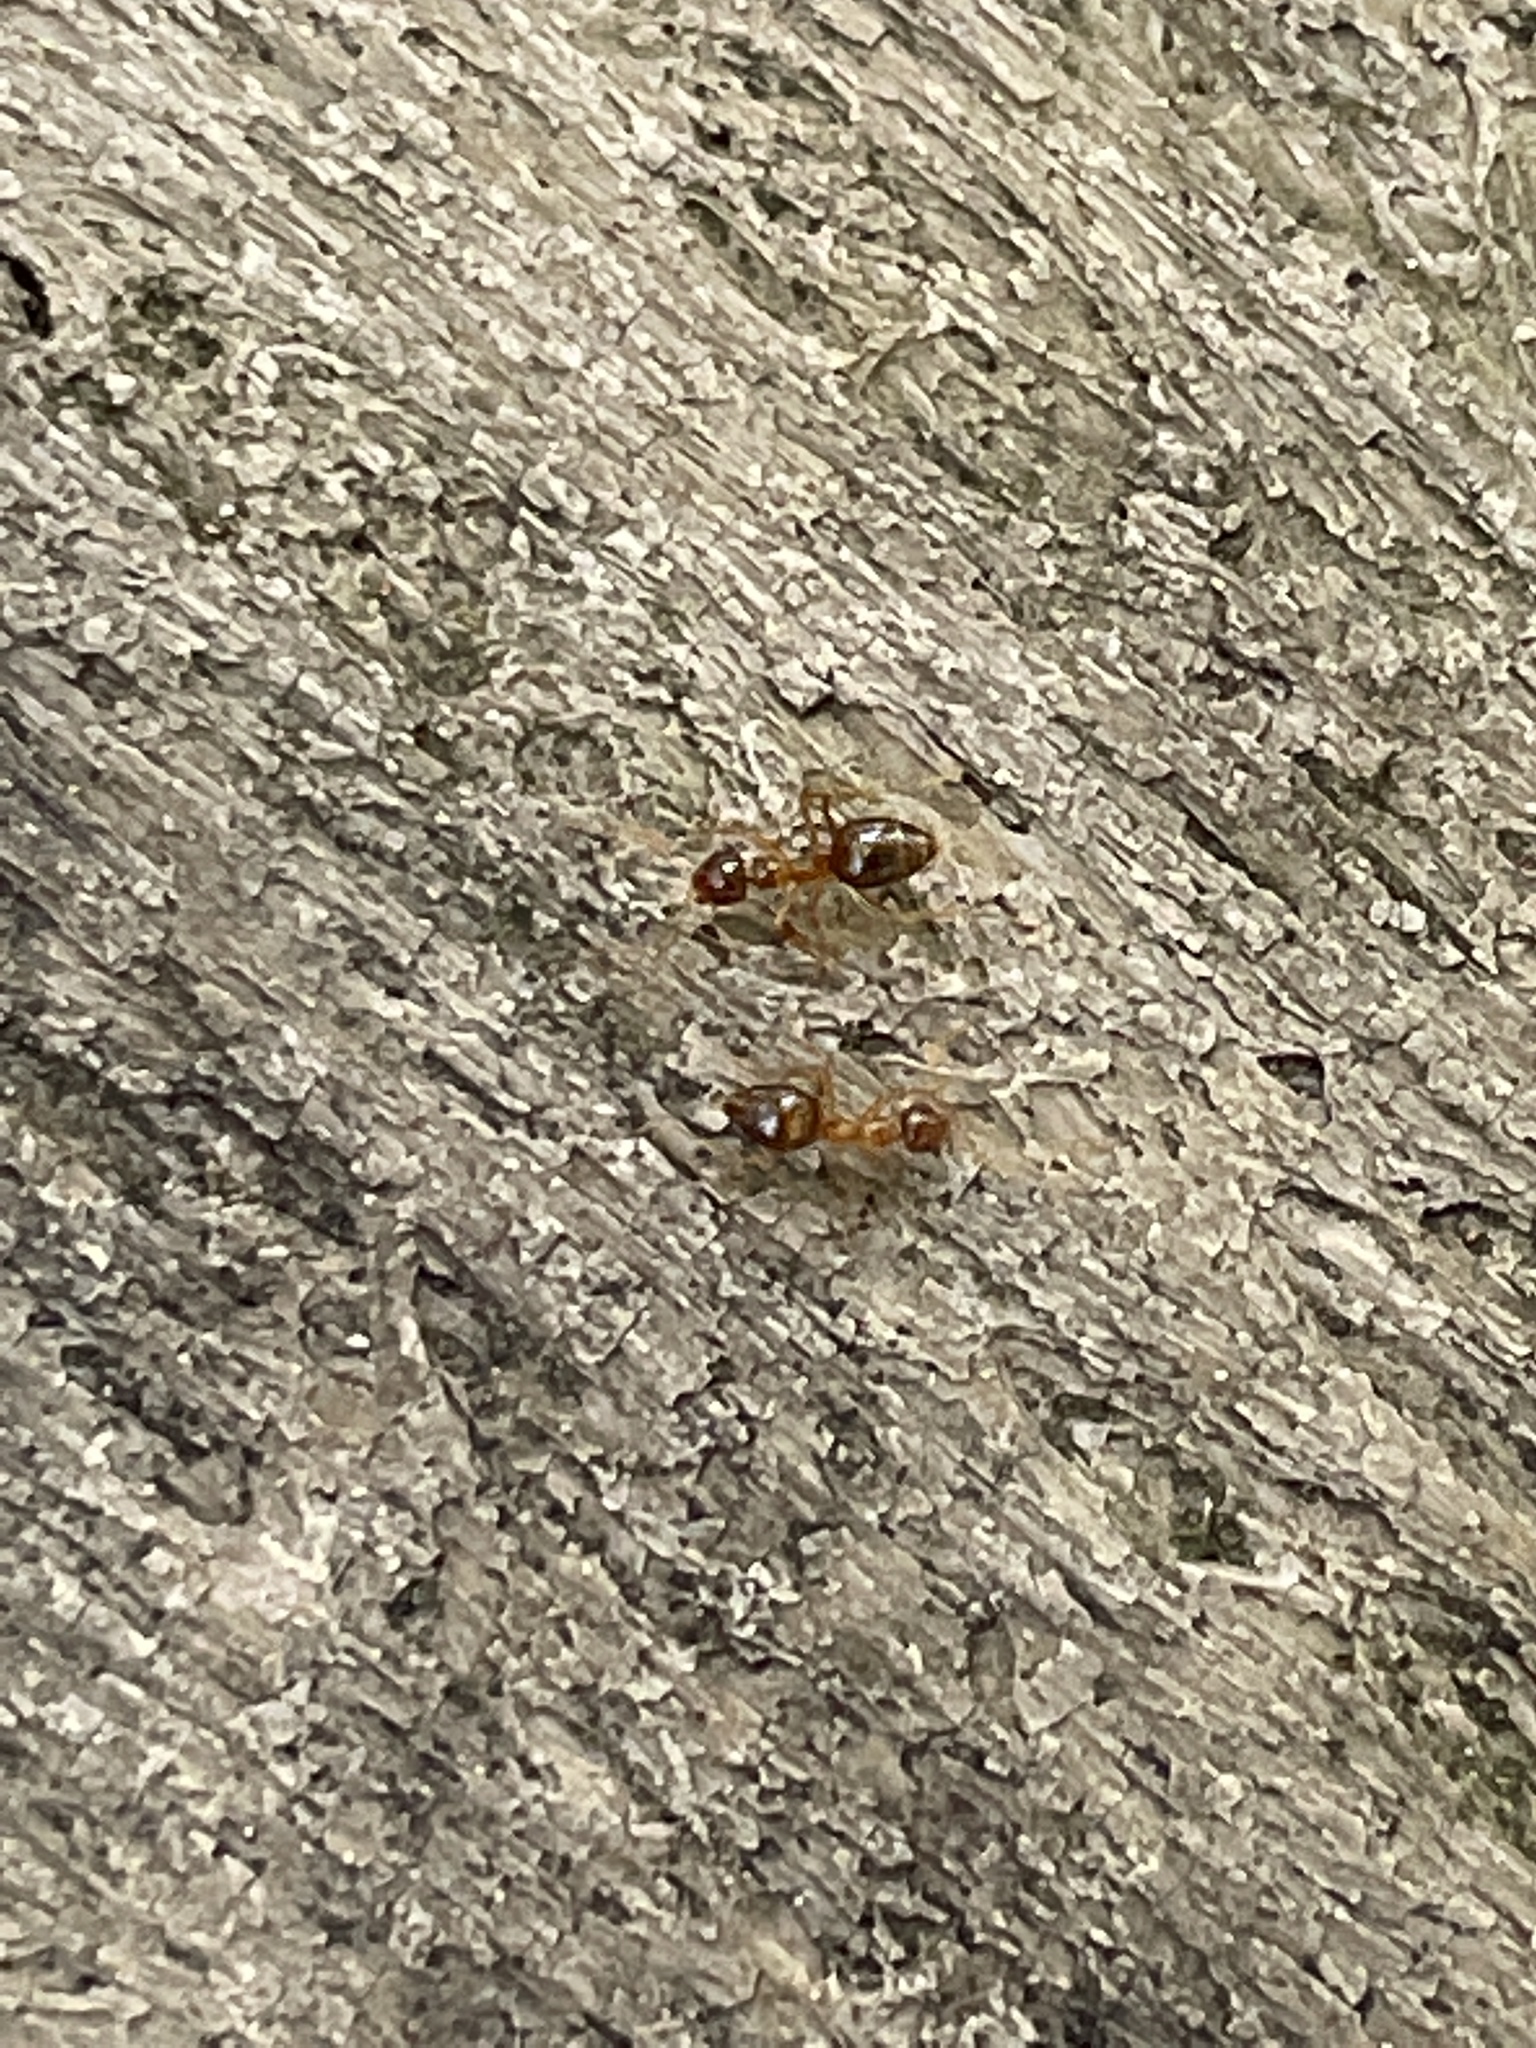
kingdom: Animalia
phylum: Arthropoda
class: Insecta
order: Hymenoptera
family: Formicidae
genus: Prenolepis
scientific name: Prenolepis imparis
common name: Small honey ant
